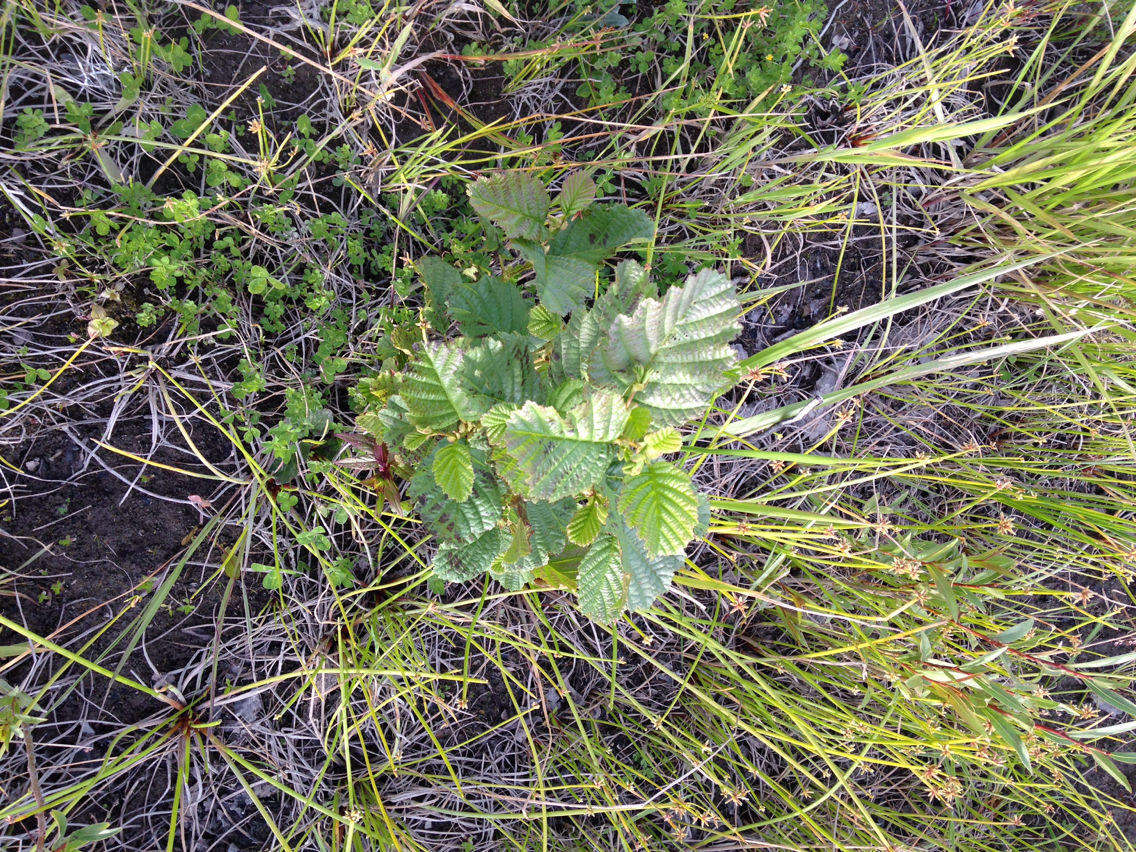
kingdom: Plantae
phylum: Tracheophyta
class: Magnoliopsida
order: Fagales
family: Betulaceae
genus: Alnus
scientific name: Alnus glutinosa
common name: Black alder
